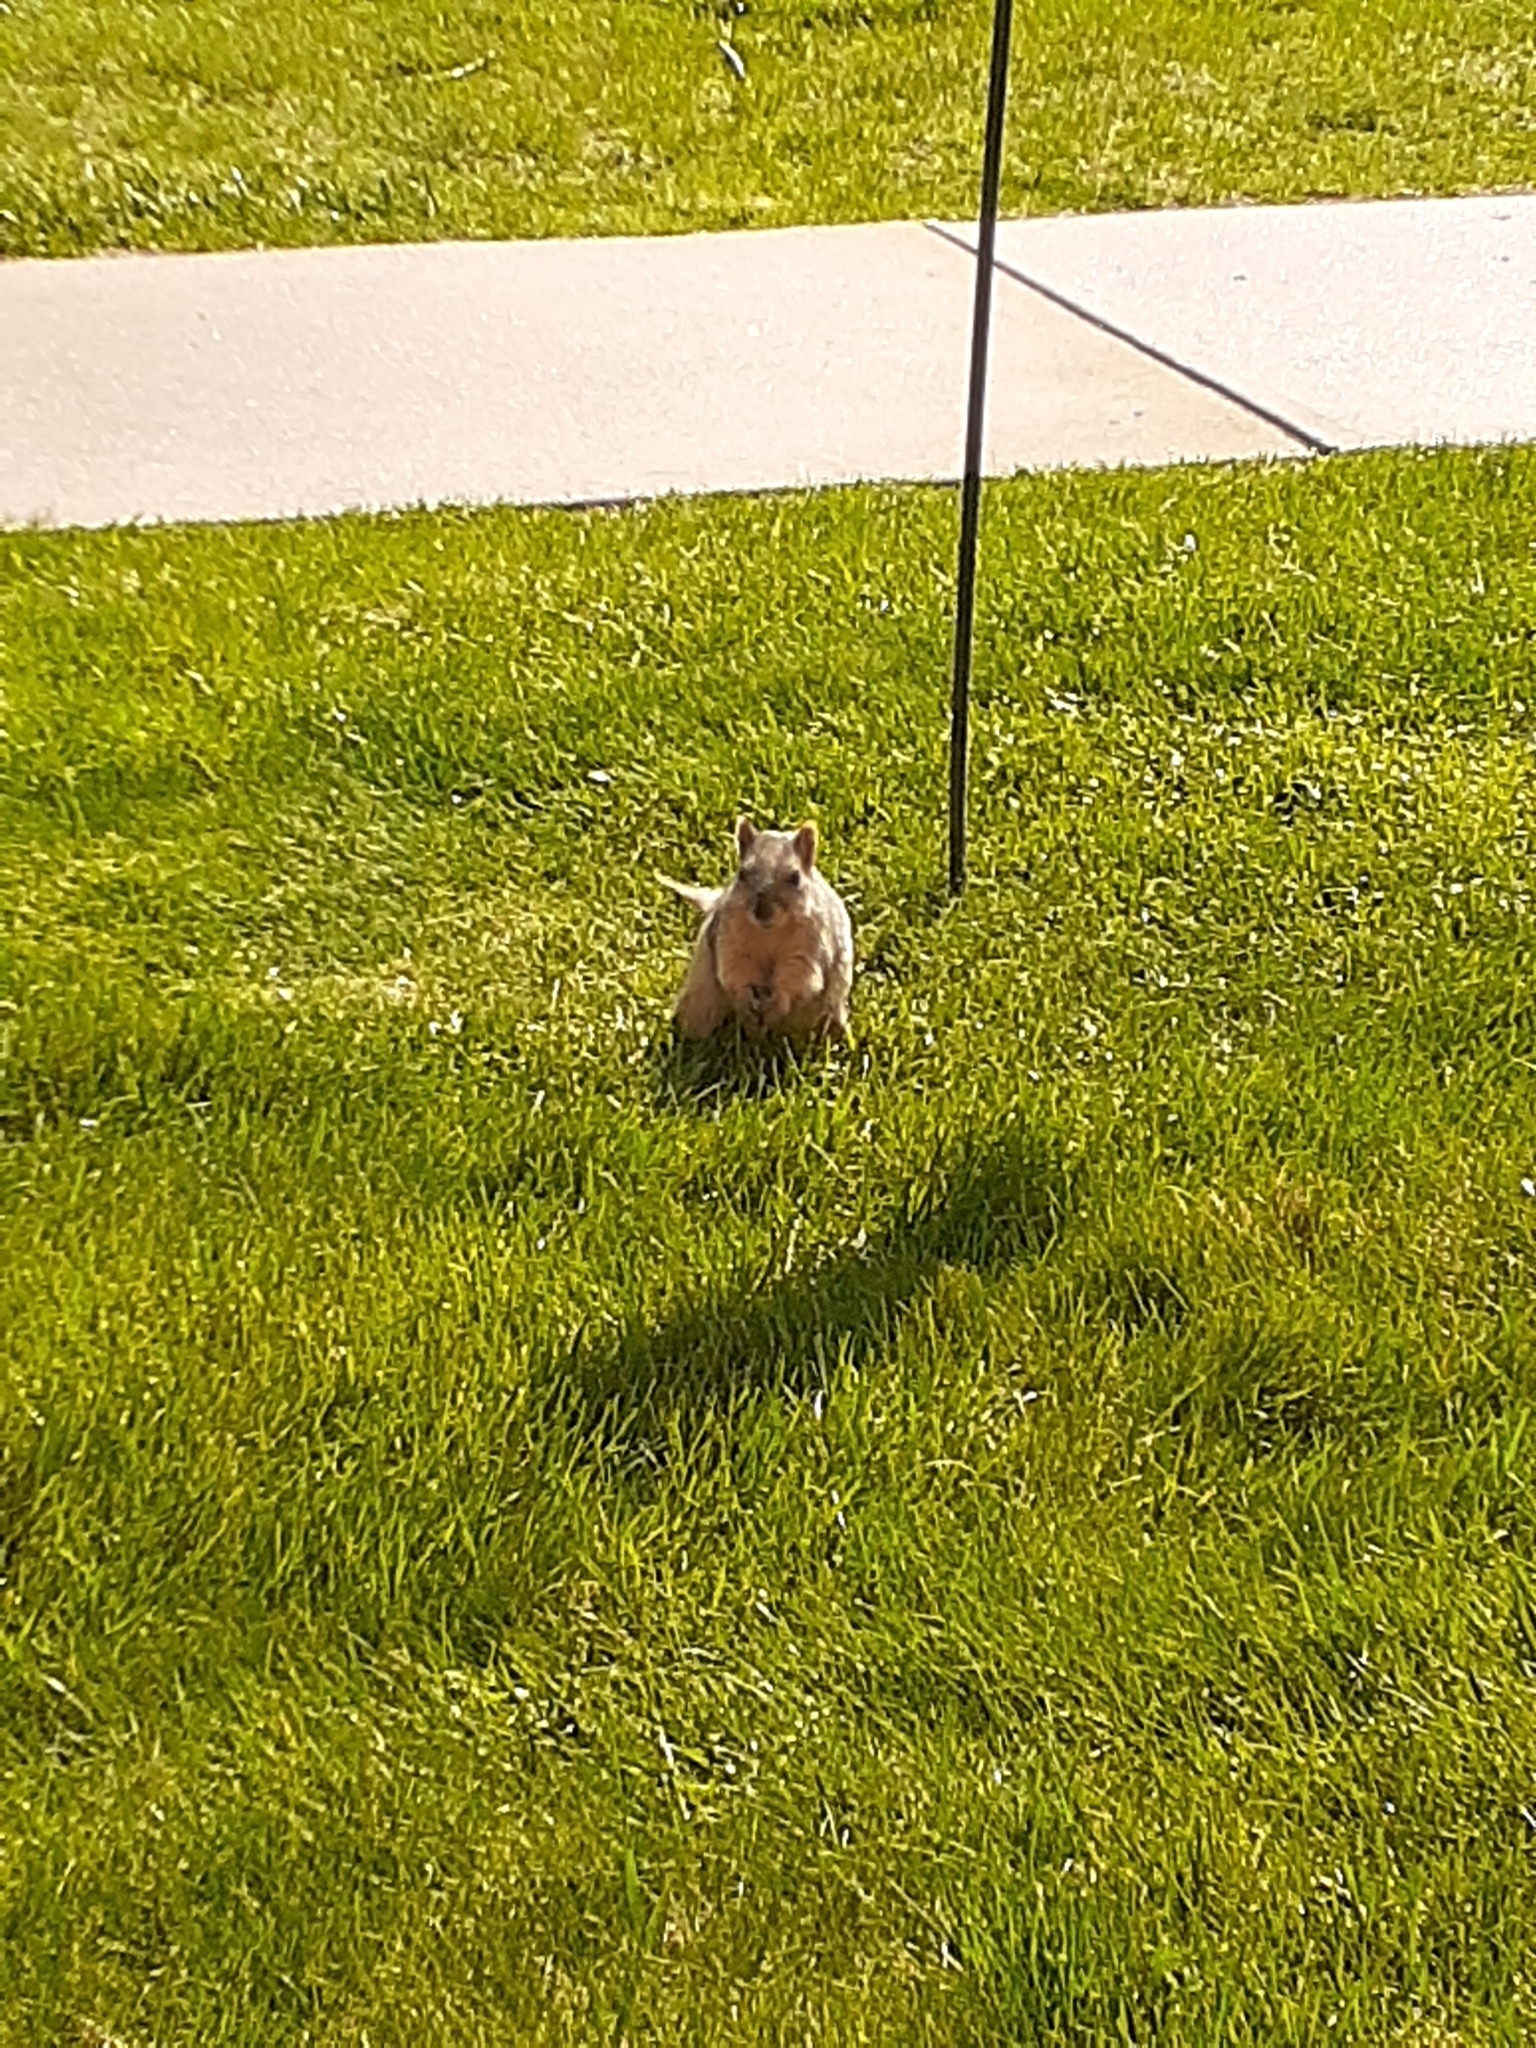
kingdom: Animalia
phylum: Chordata
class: Mammalia
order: Rodentia
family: Sciuridae
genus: Sciurus
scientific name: Sciurus niger
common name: Fox squirrel
